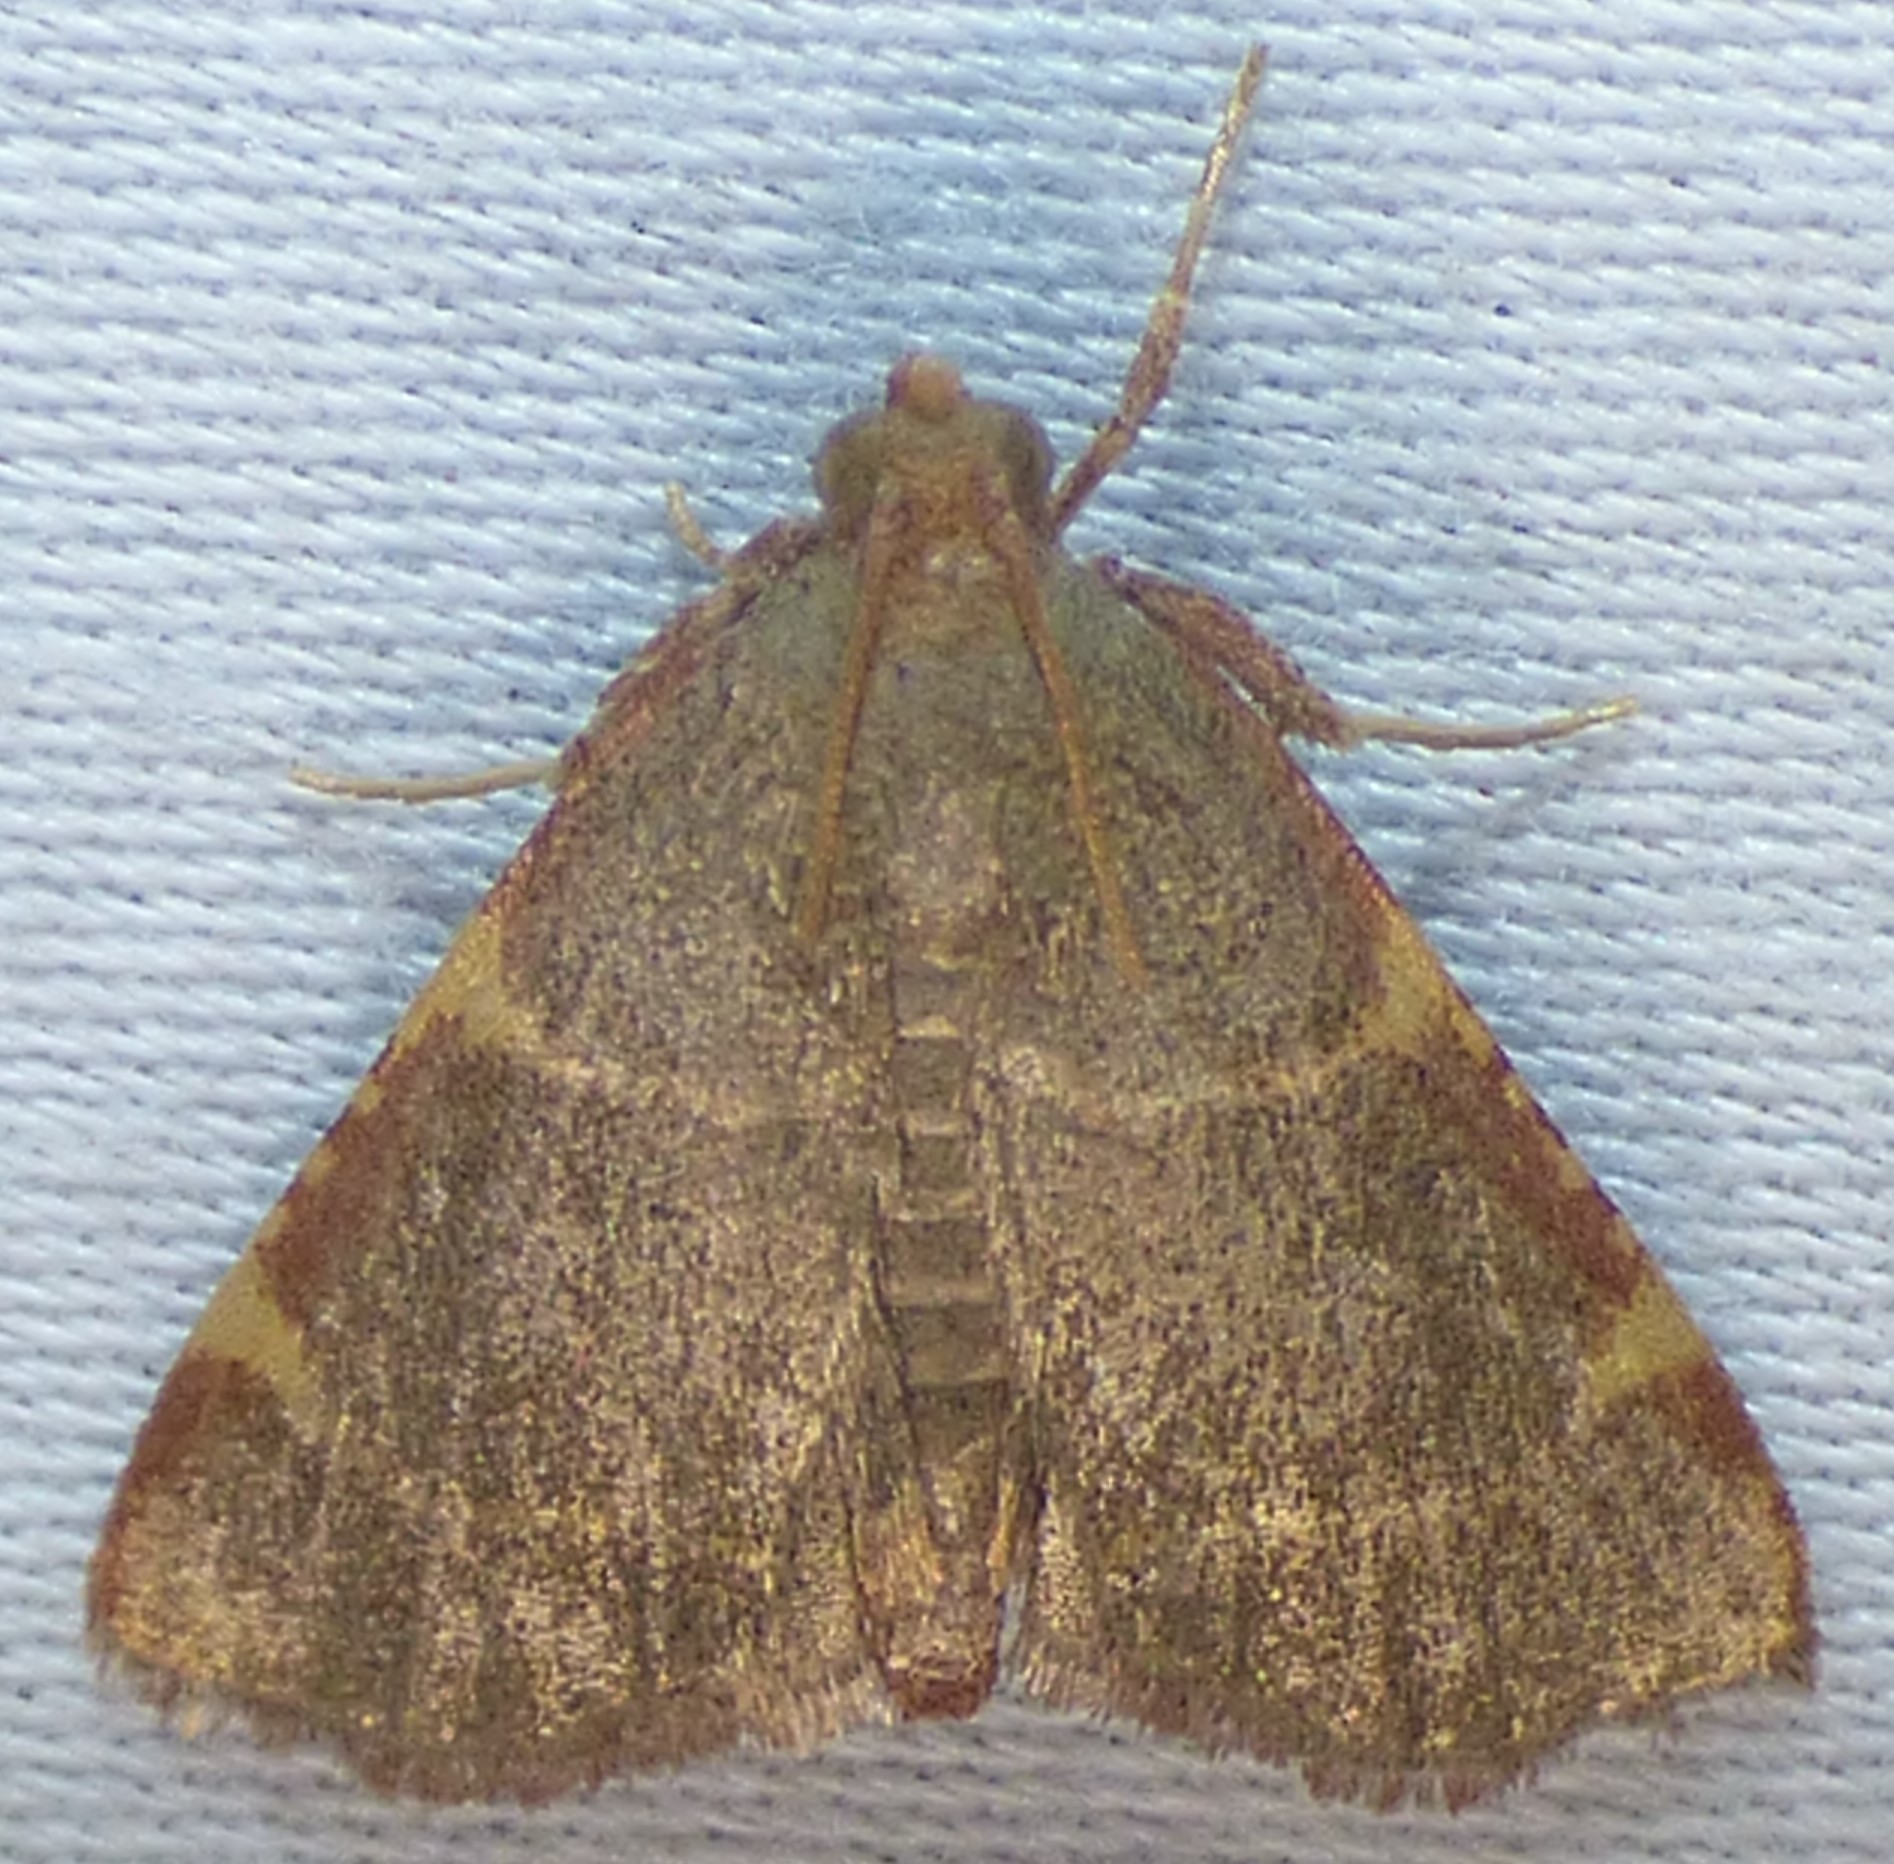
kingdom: Animalia
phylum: Arthropoda
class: Insecta
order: Lepidoptera
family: Pyralidae
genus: Hypsopygia
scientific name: Hypsopygia binodulalis
